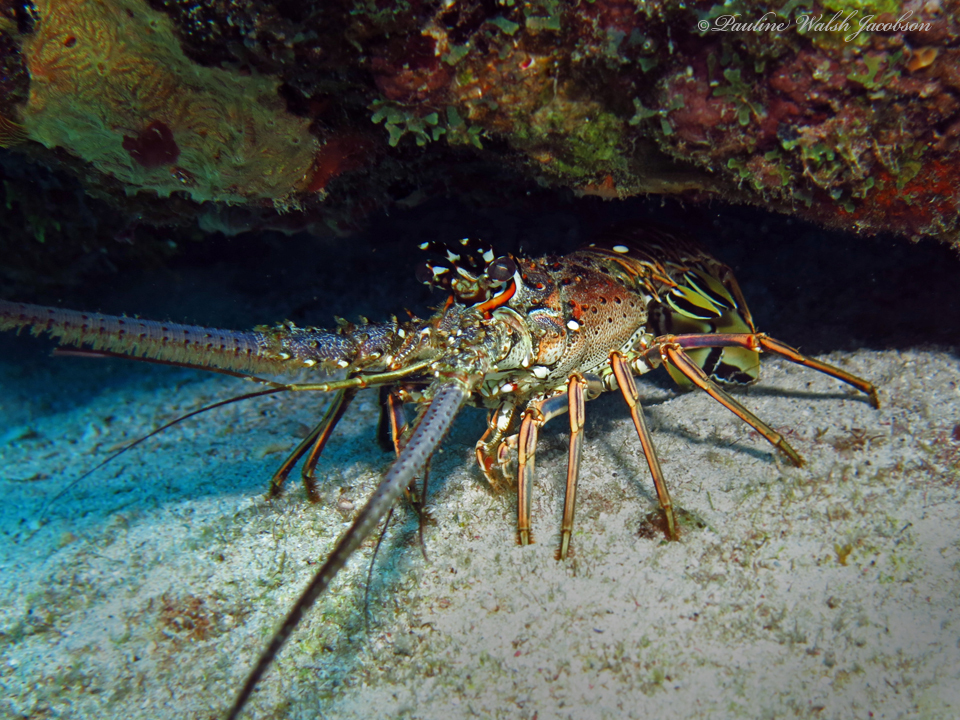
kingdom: Animalia
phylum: Arthropoda
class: Malacostraca
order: Decapoda
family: Palinuridae
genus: Panulirus
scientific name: Panulirus argus
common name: Caribbean spiny lobster
